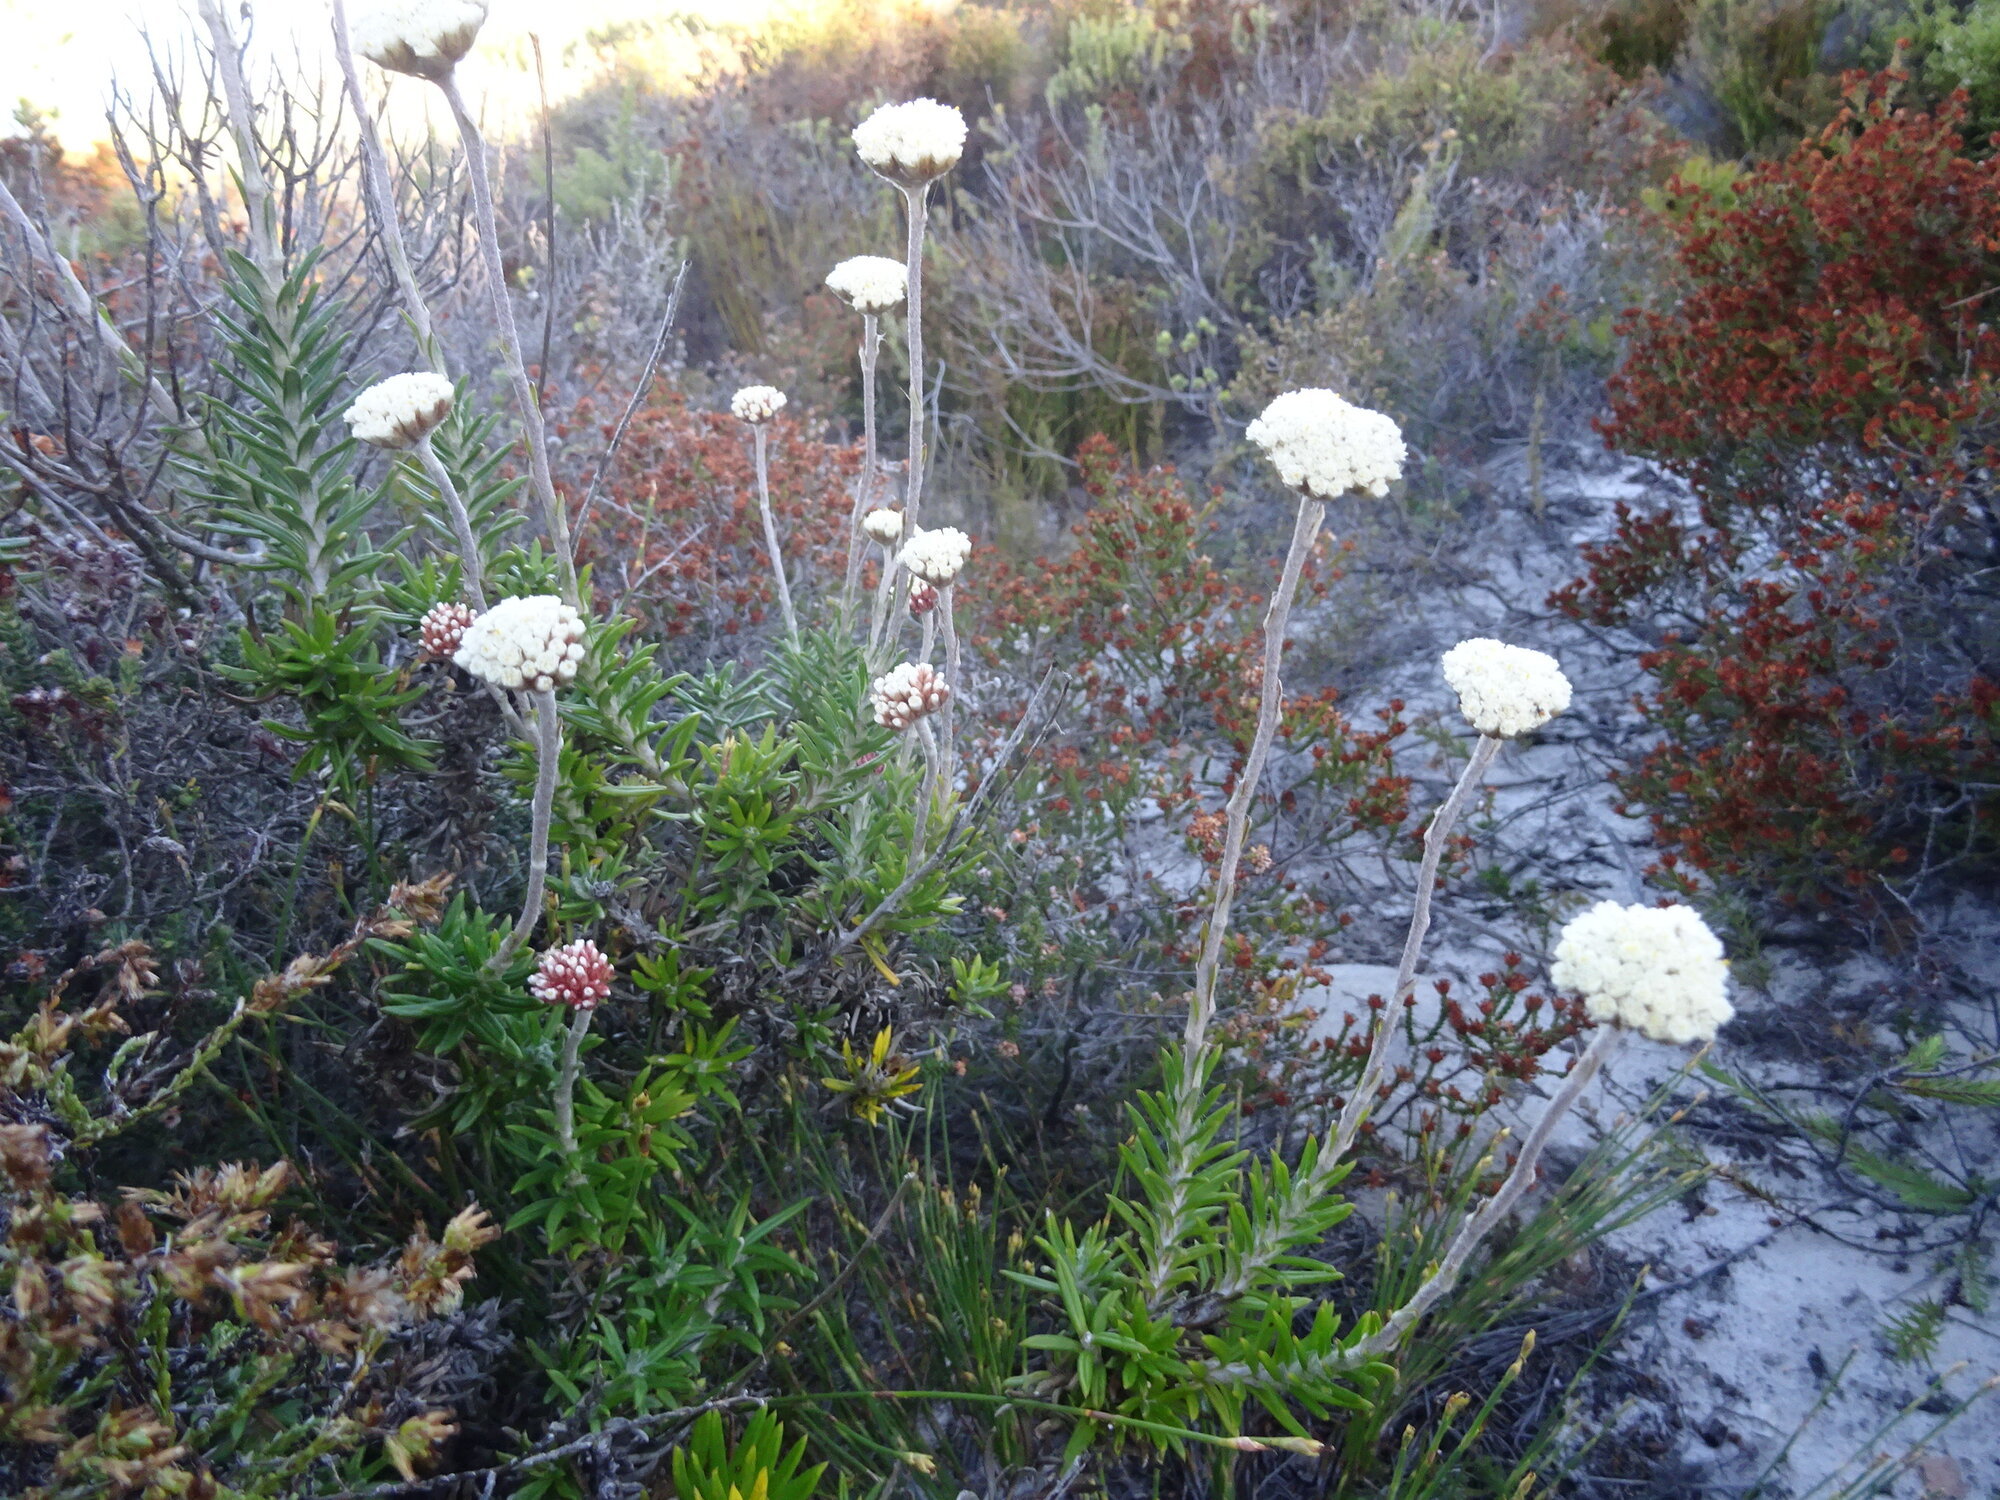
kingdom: Plantae
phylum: Tracheophyta
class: Magnoliopsida
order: Asterales
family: Asteraceae
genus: Anaxeton
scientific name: Anaxeton laeve
